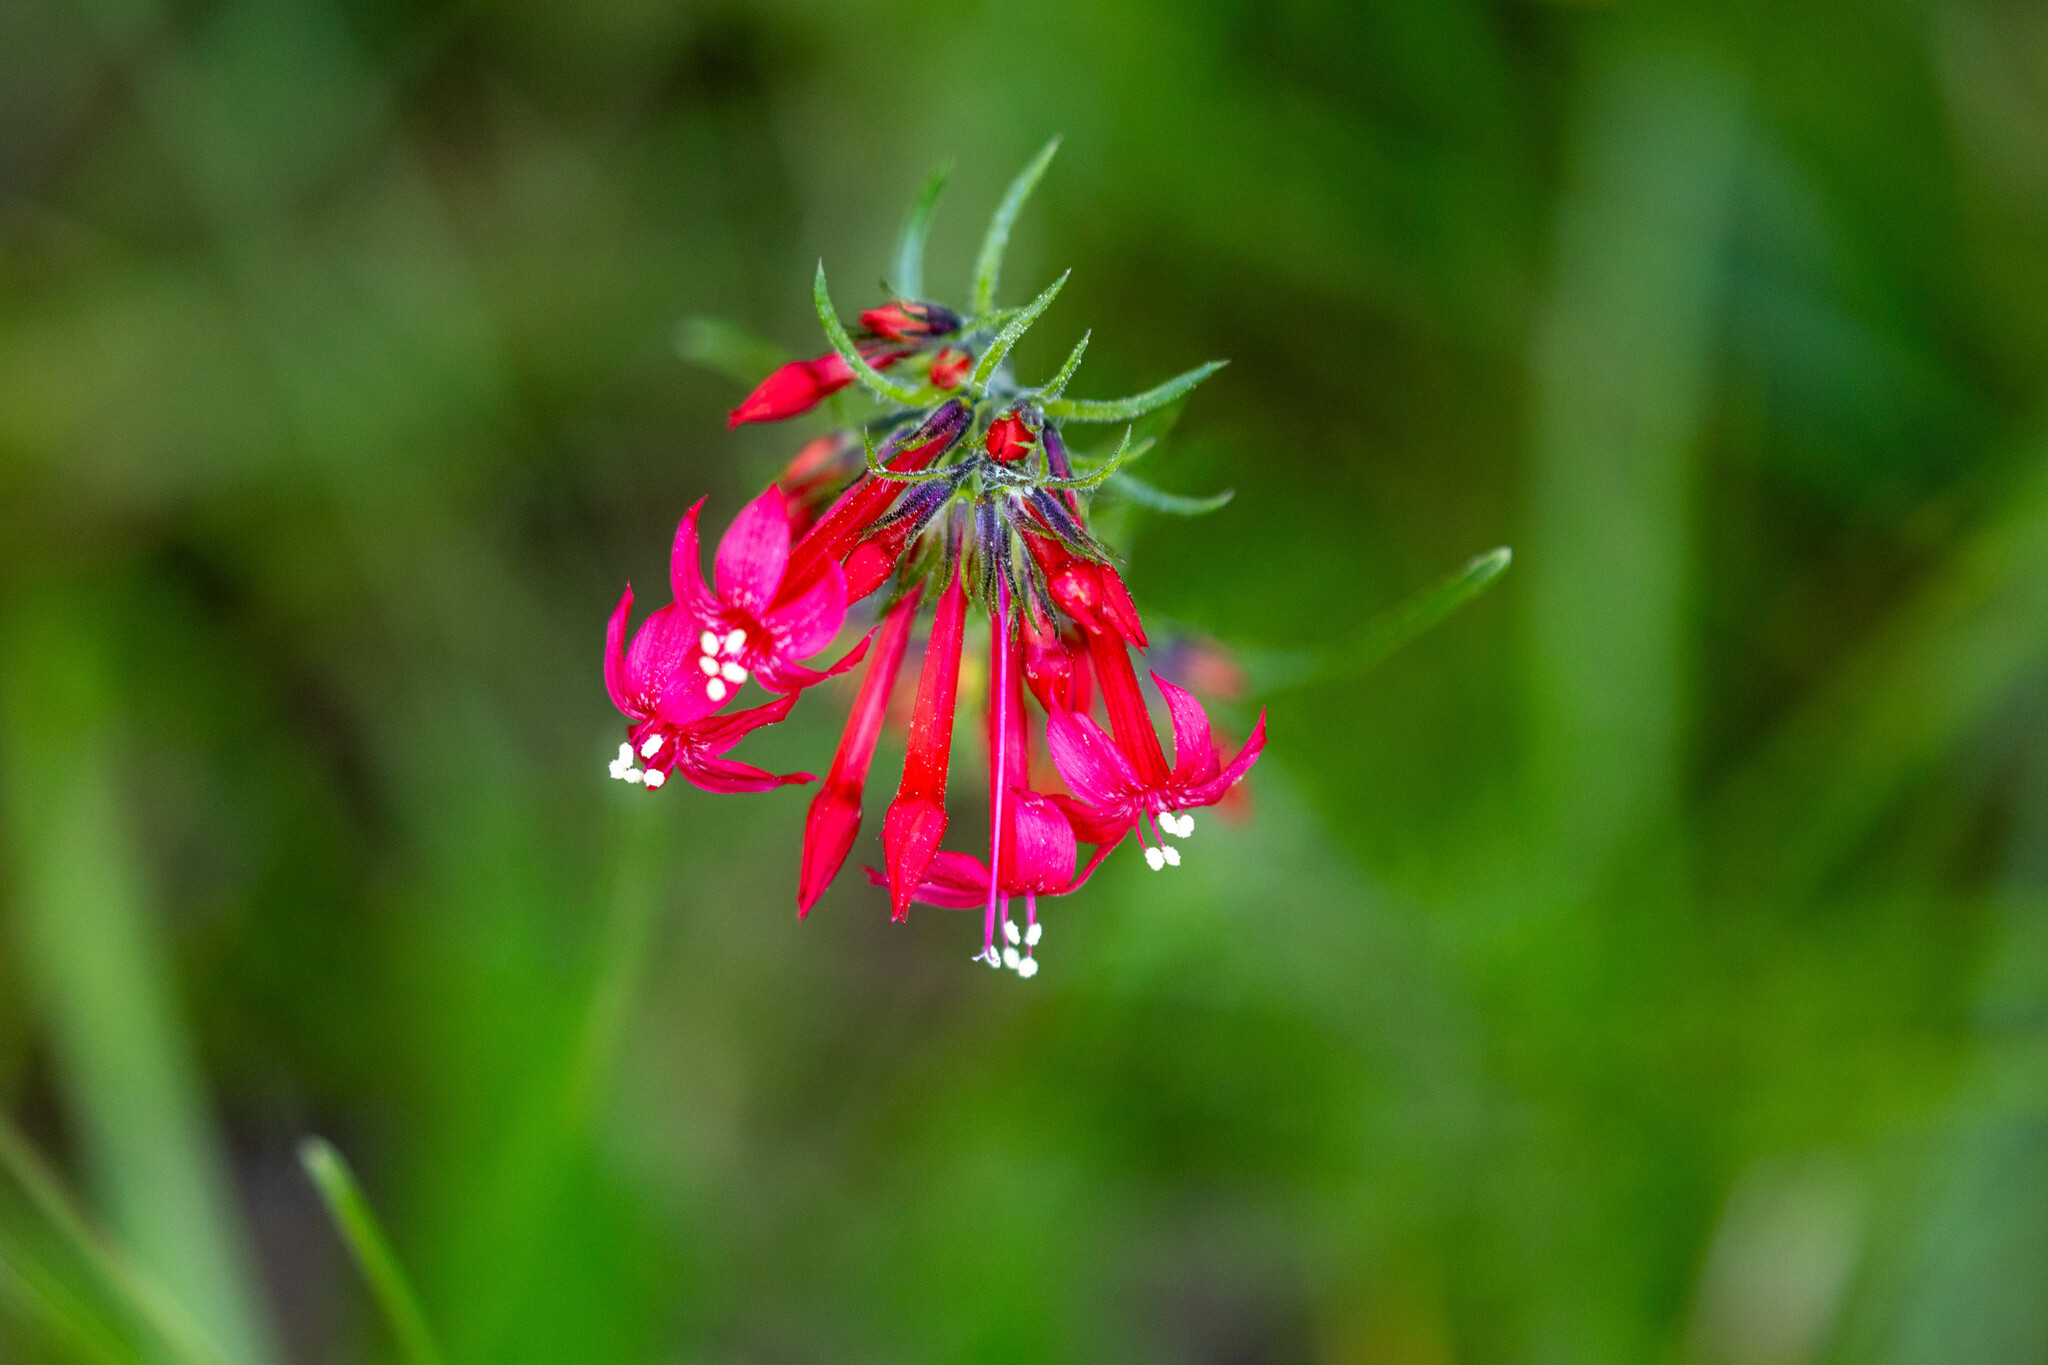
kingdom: Plantae
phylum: Tracheophyta
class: Magnoliopsida
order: Ericales
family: Polemoniaceae
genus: Ipomopsis
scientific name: Ipomopsis aggregata
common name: Scarlet gilia
